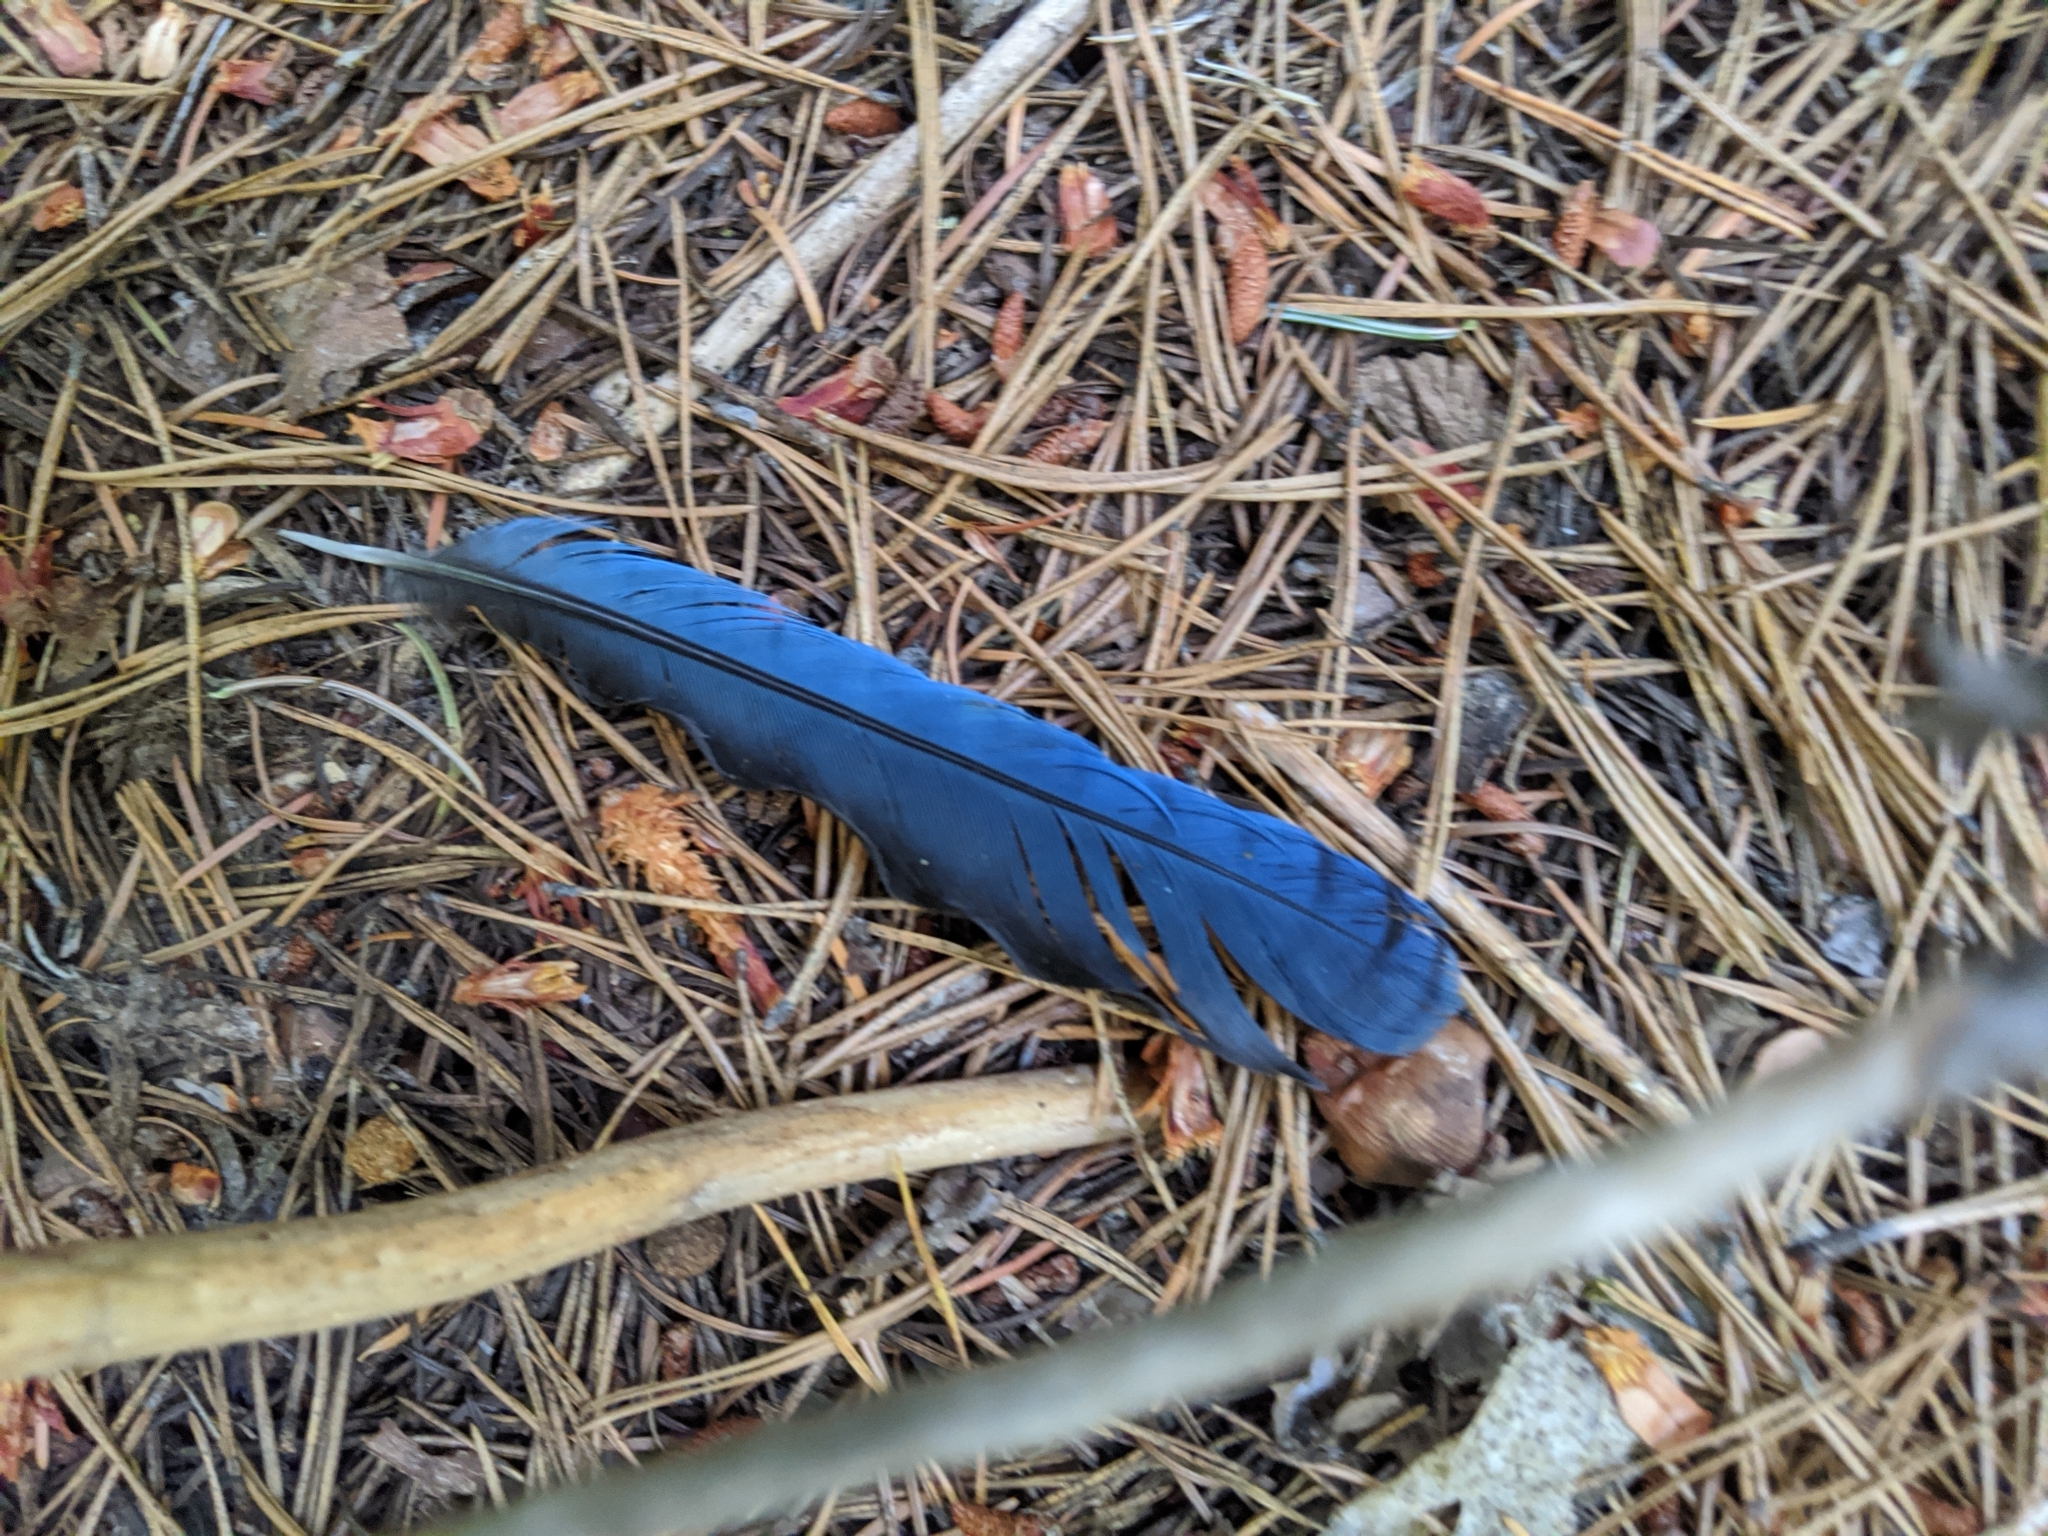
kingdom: Animalia
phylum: Chordata
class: Aves
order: Passeriformes
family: Corvidae
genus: Cyanocitta
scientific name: Cyanocitta stelleri
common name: Steller's jay
